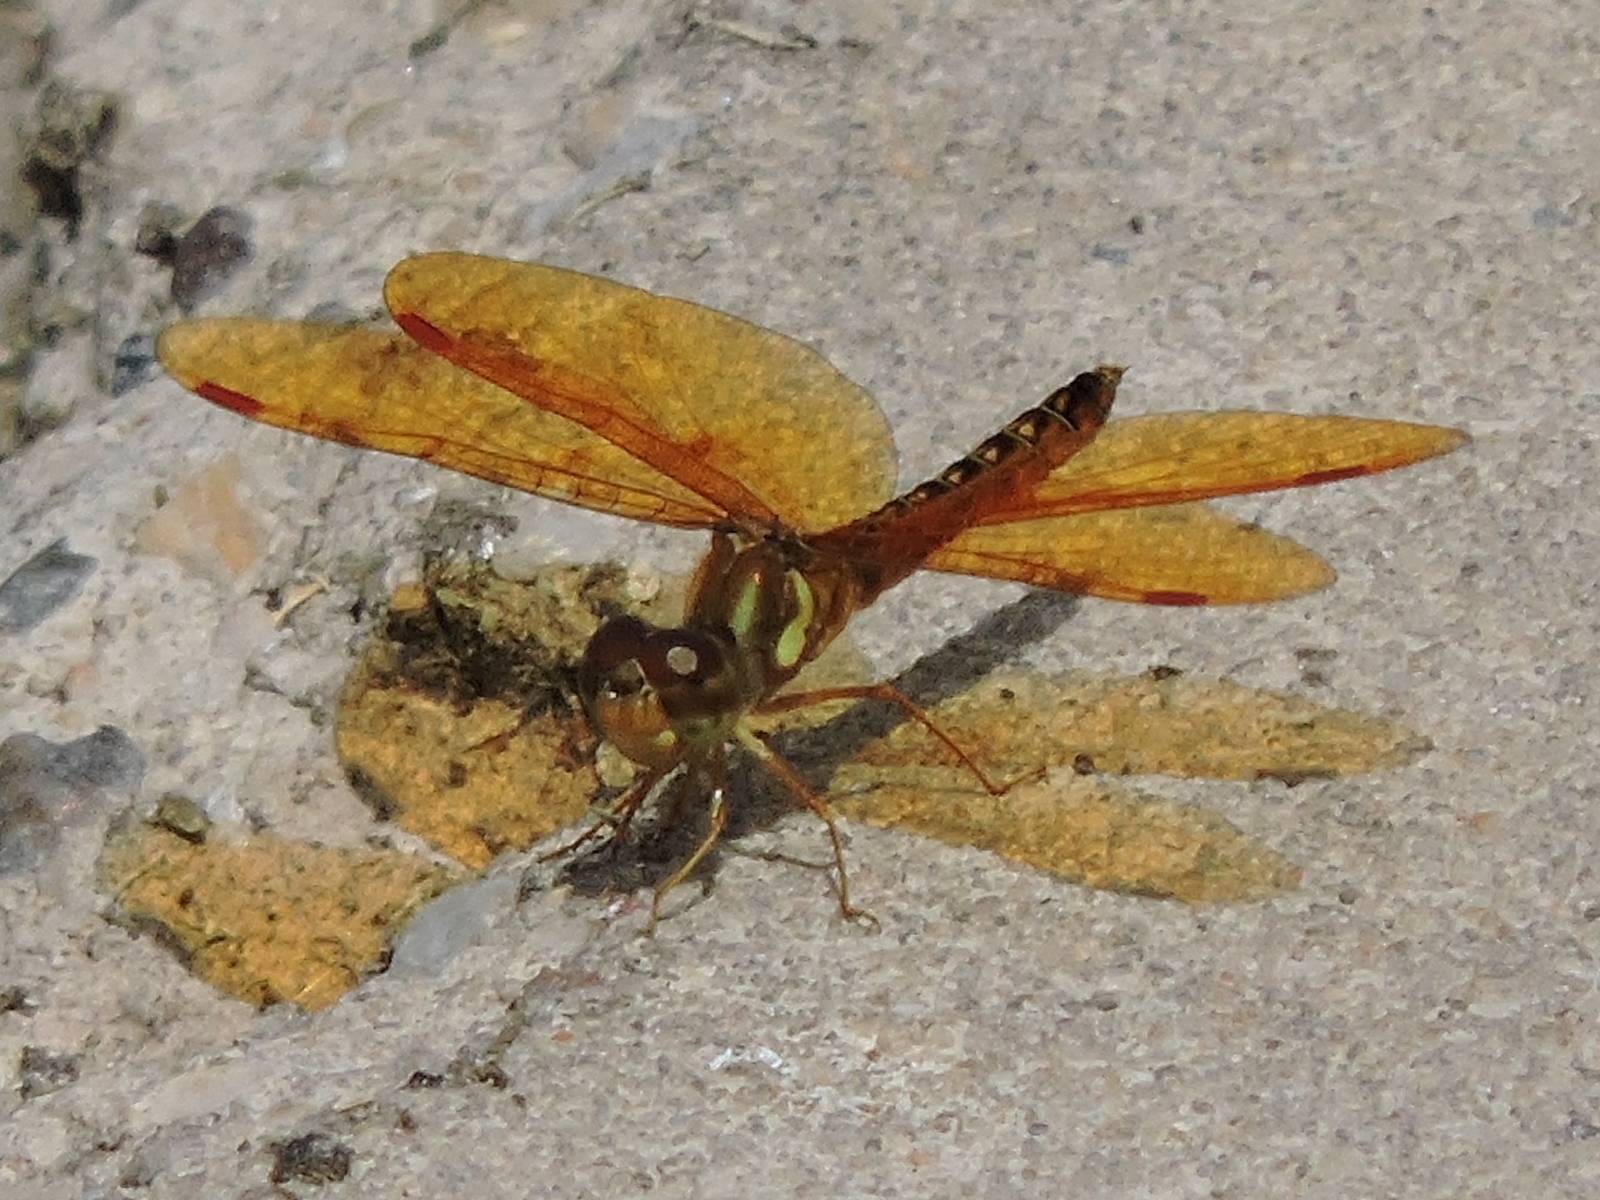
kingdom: Animalia
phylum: Arthropoda
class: Insecta
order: Odonata
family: Libellulidae
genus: Perithemis
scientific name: Perithemis tenera
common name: Eastern amberwing
